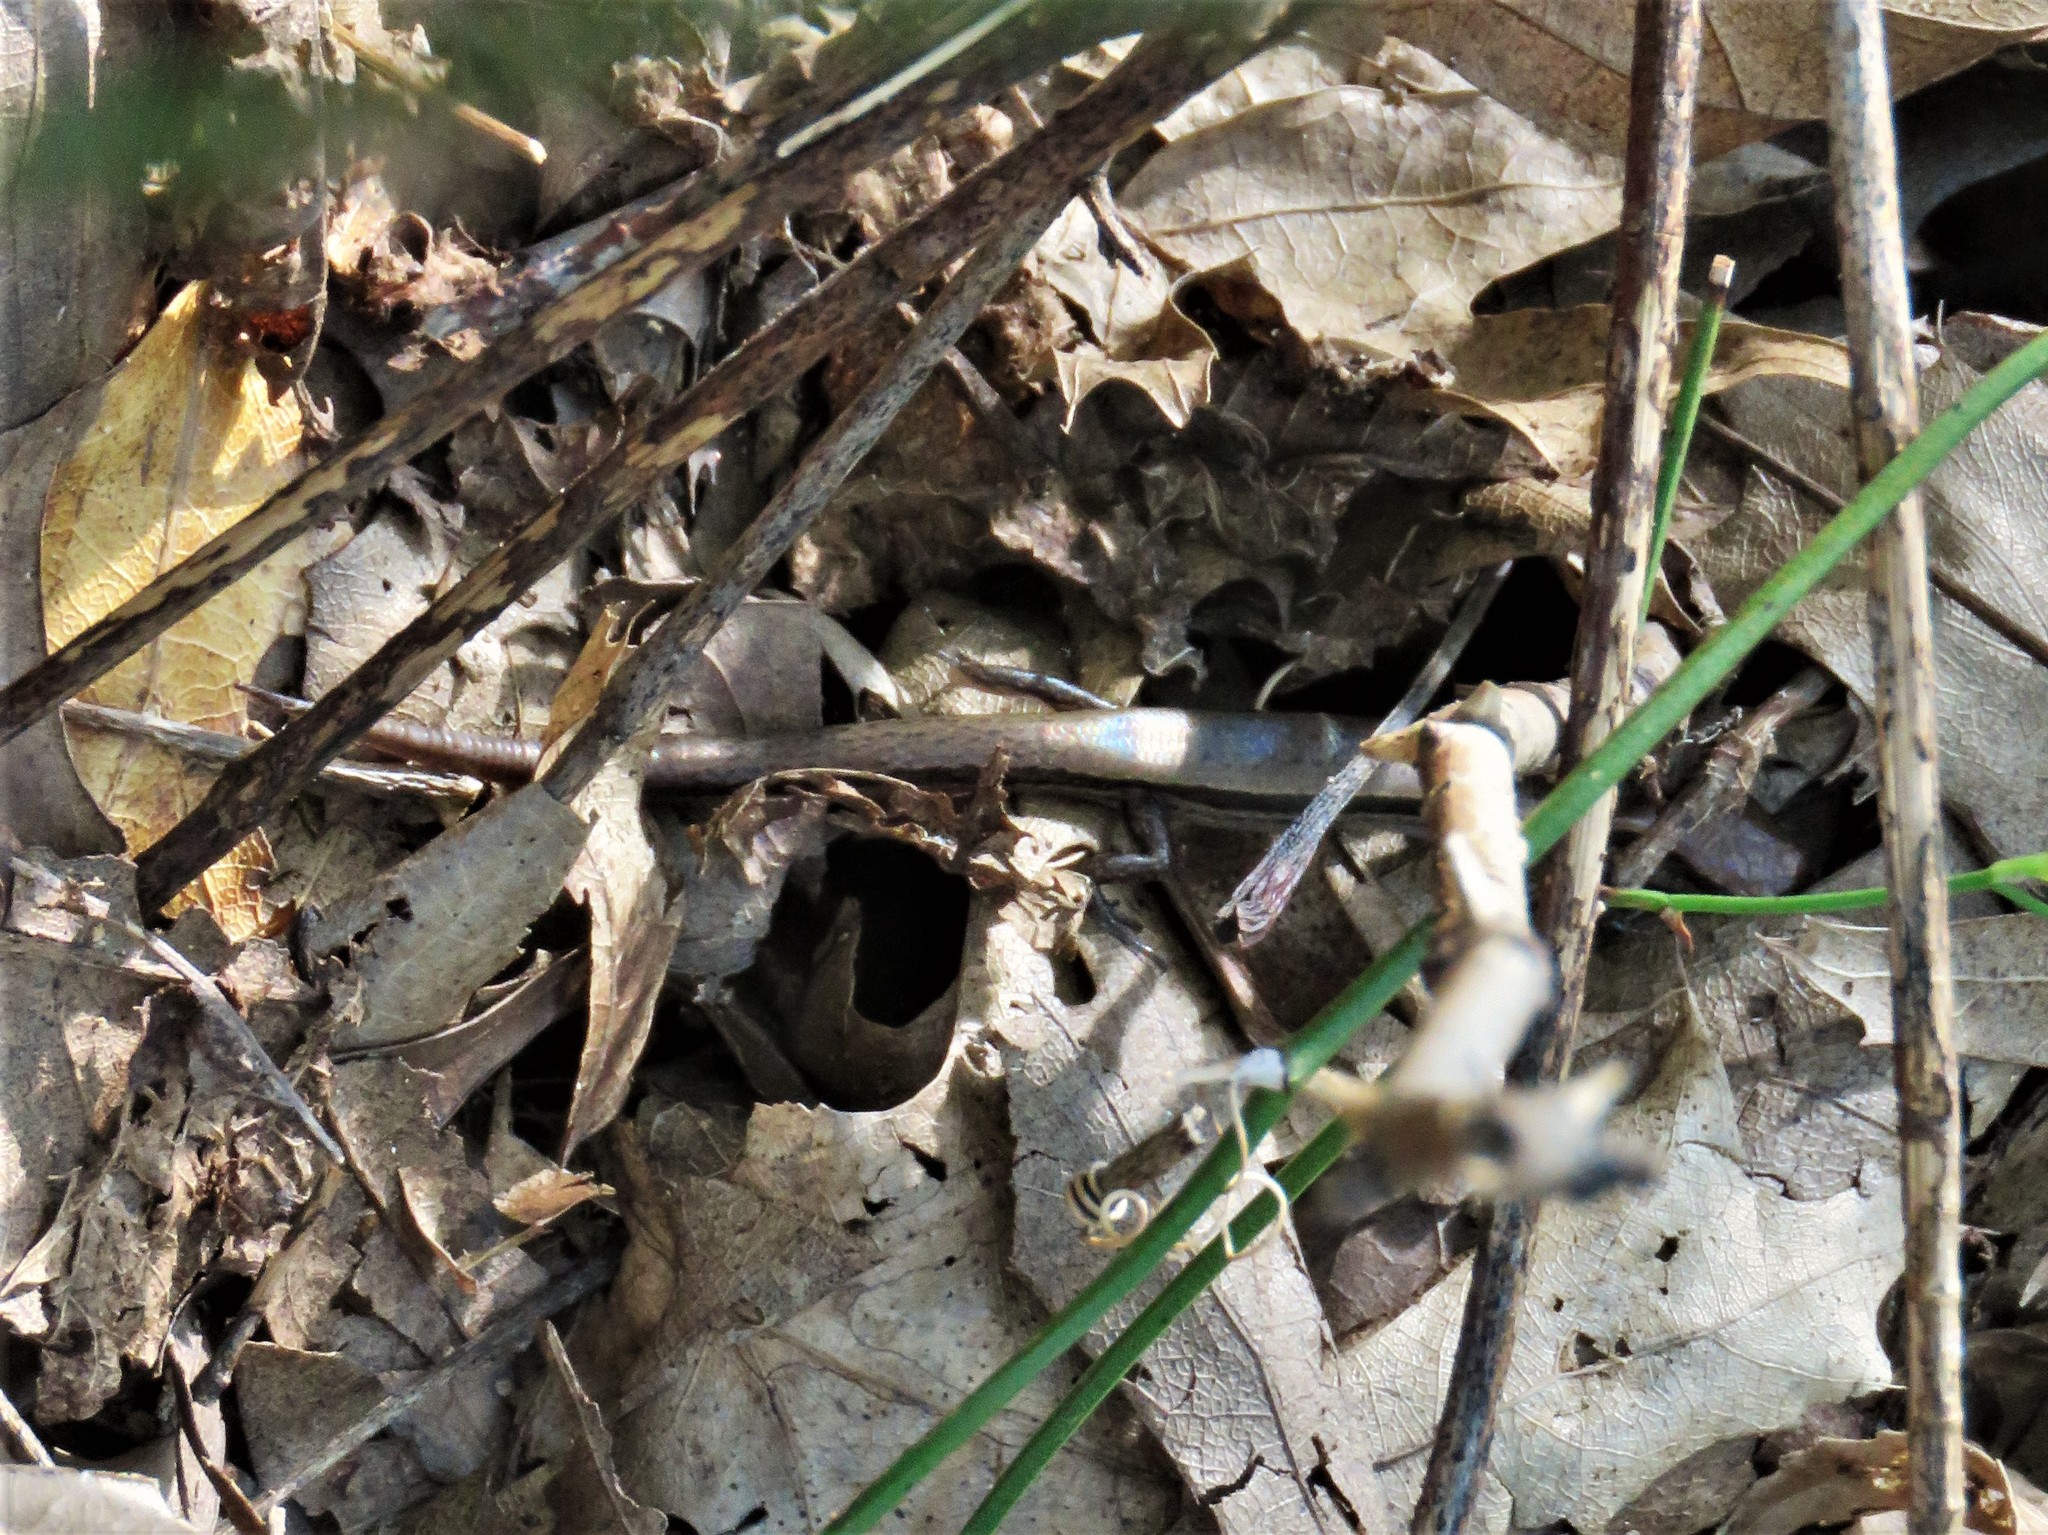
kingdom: Animalia
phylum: Chordata
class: Squamata
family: Scincidae
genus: Scincella
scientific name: Scincella lateralis
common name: Ground skink
